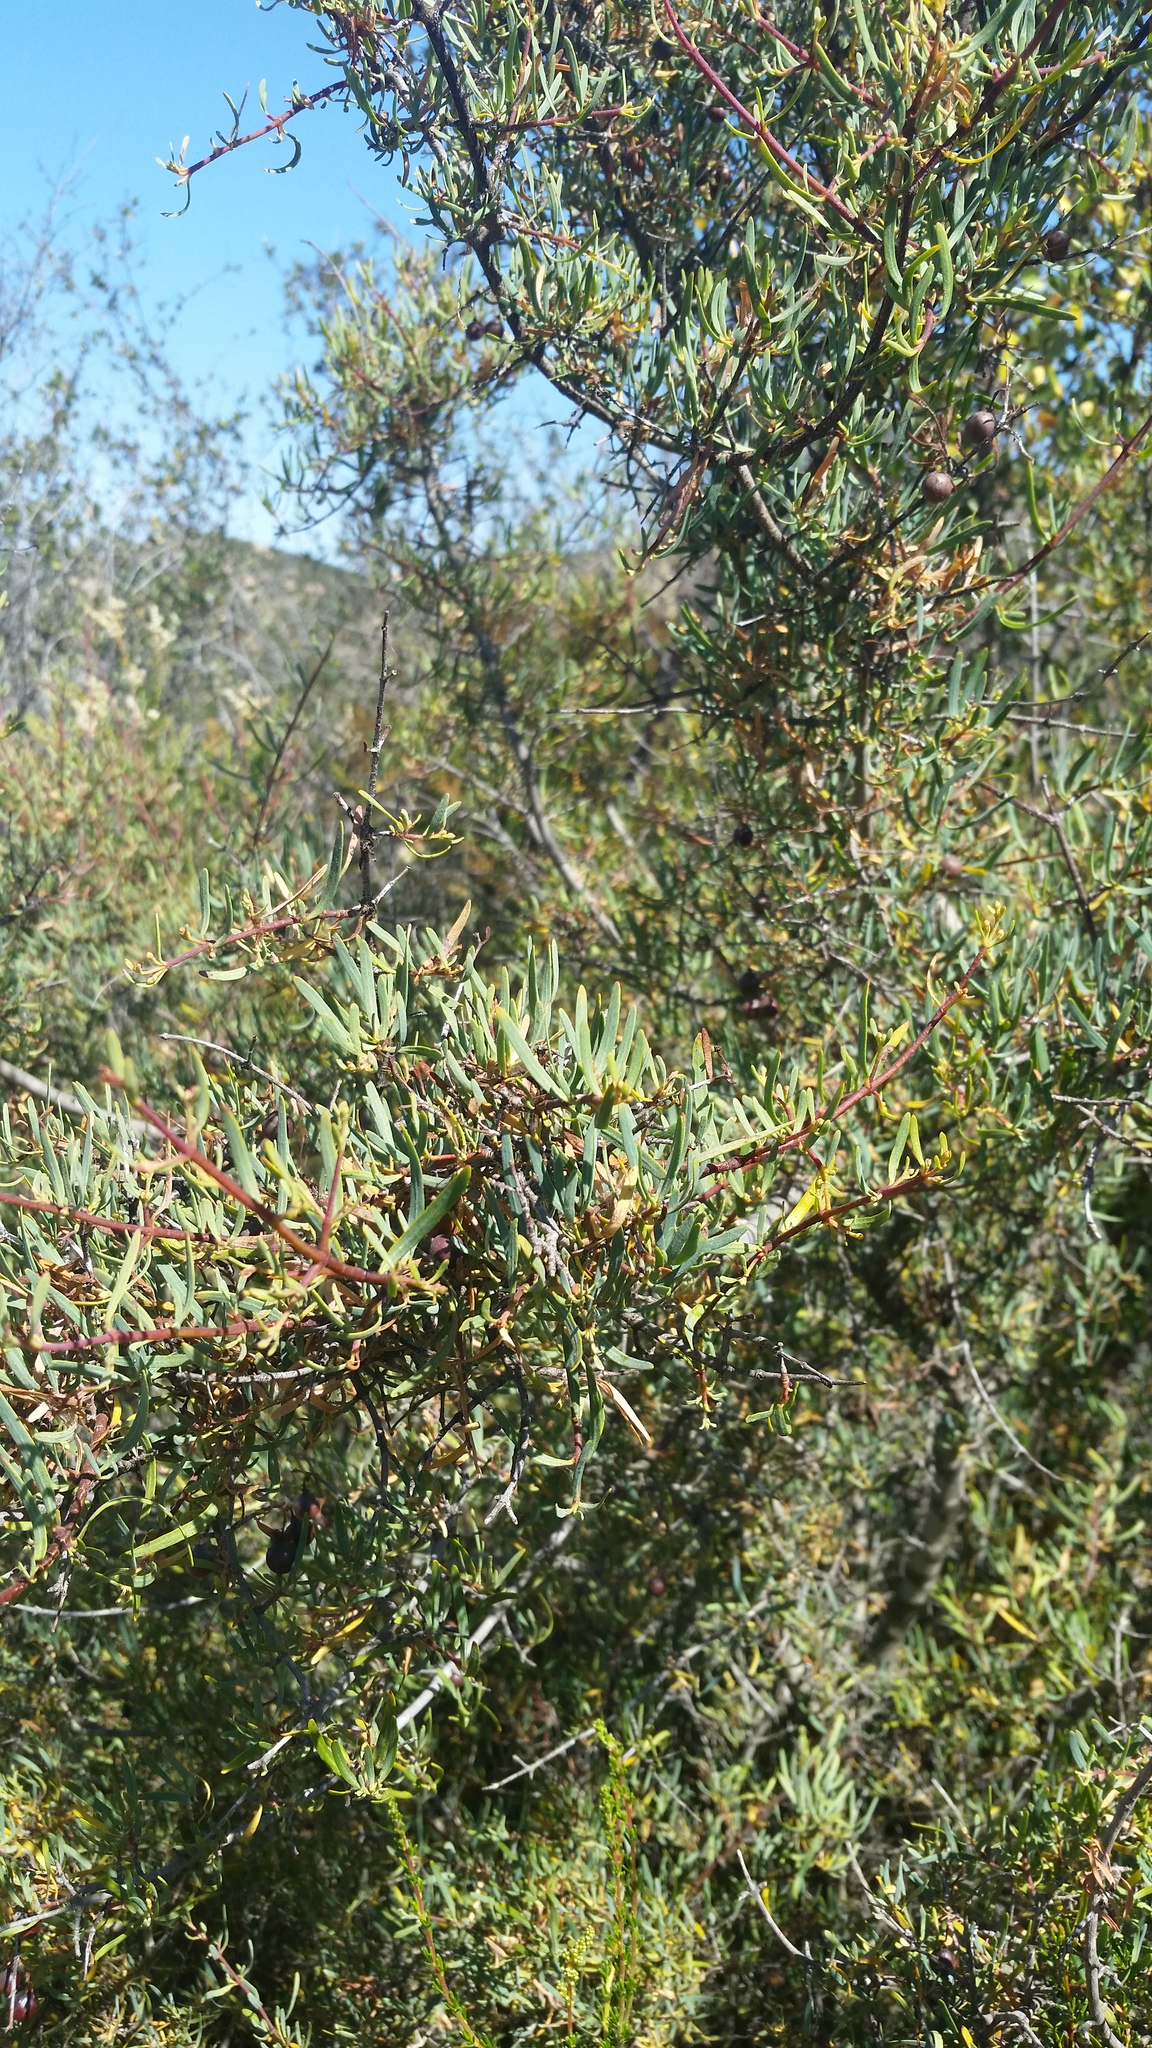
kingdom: Plantae
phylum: Tracheophyta
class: Magnoliopsida
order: Sapindales
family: Rutaceae
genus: Cneoridium
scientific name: Cneoridium dumosum
